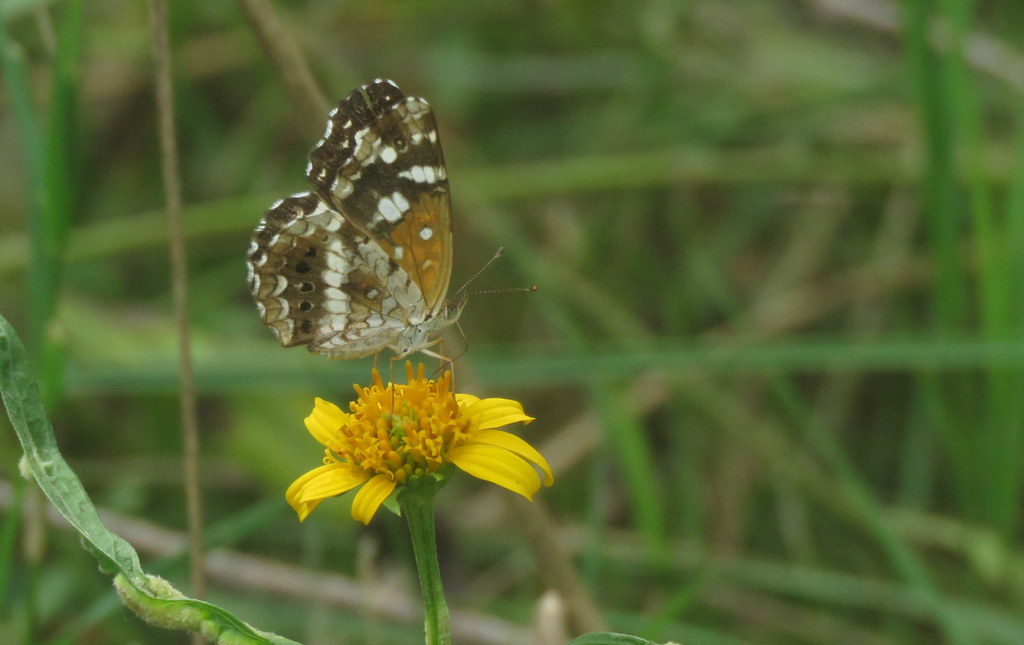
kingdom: Animalia
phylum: Arthropoda
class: Insecta
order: Lepidoptera
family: Nymphalidae
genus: Ortilia
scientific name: Ortilia ithra
